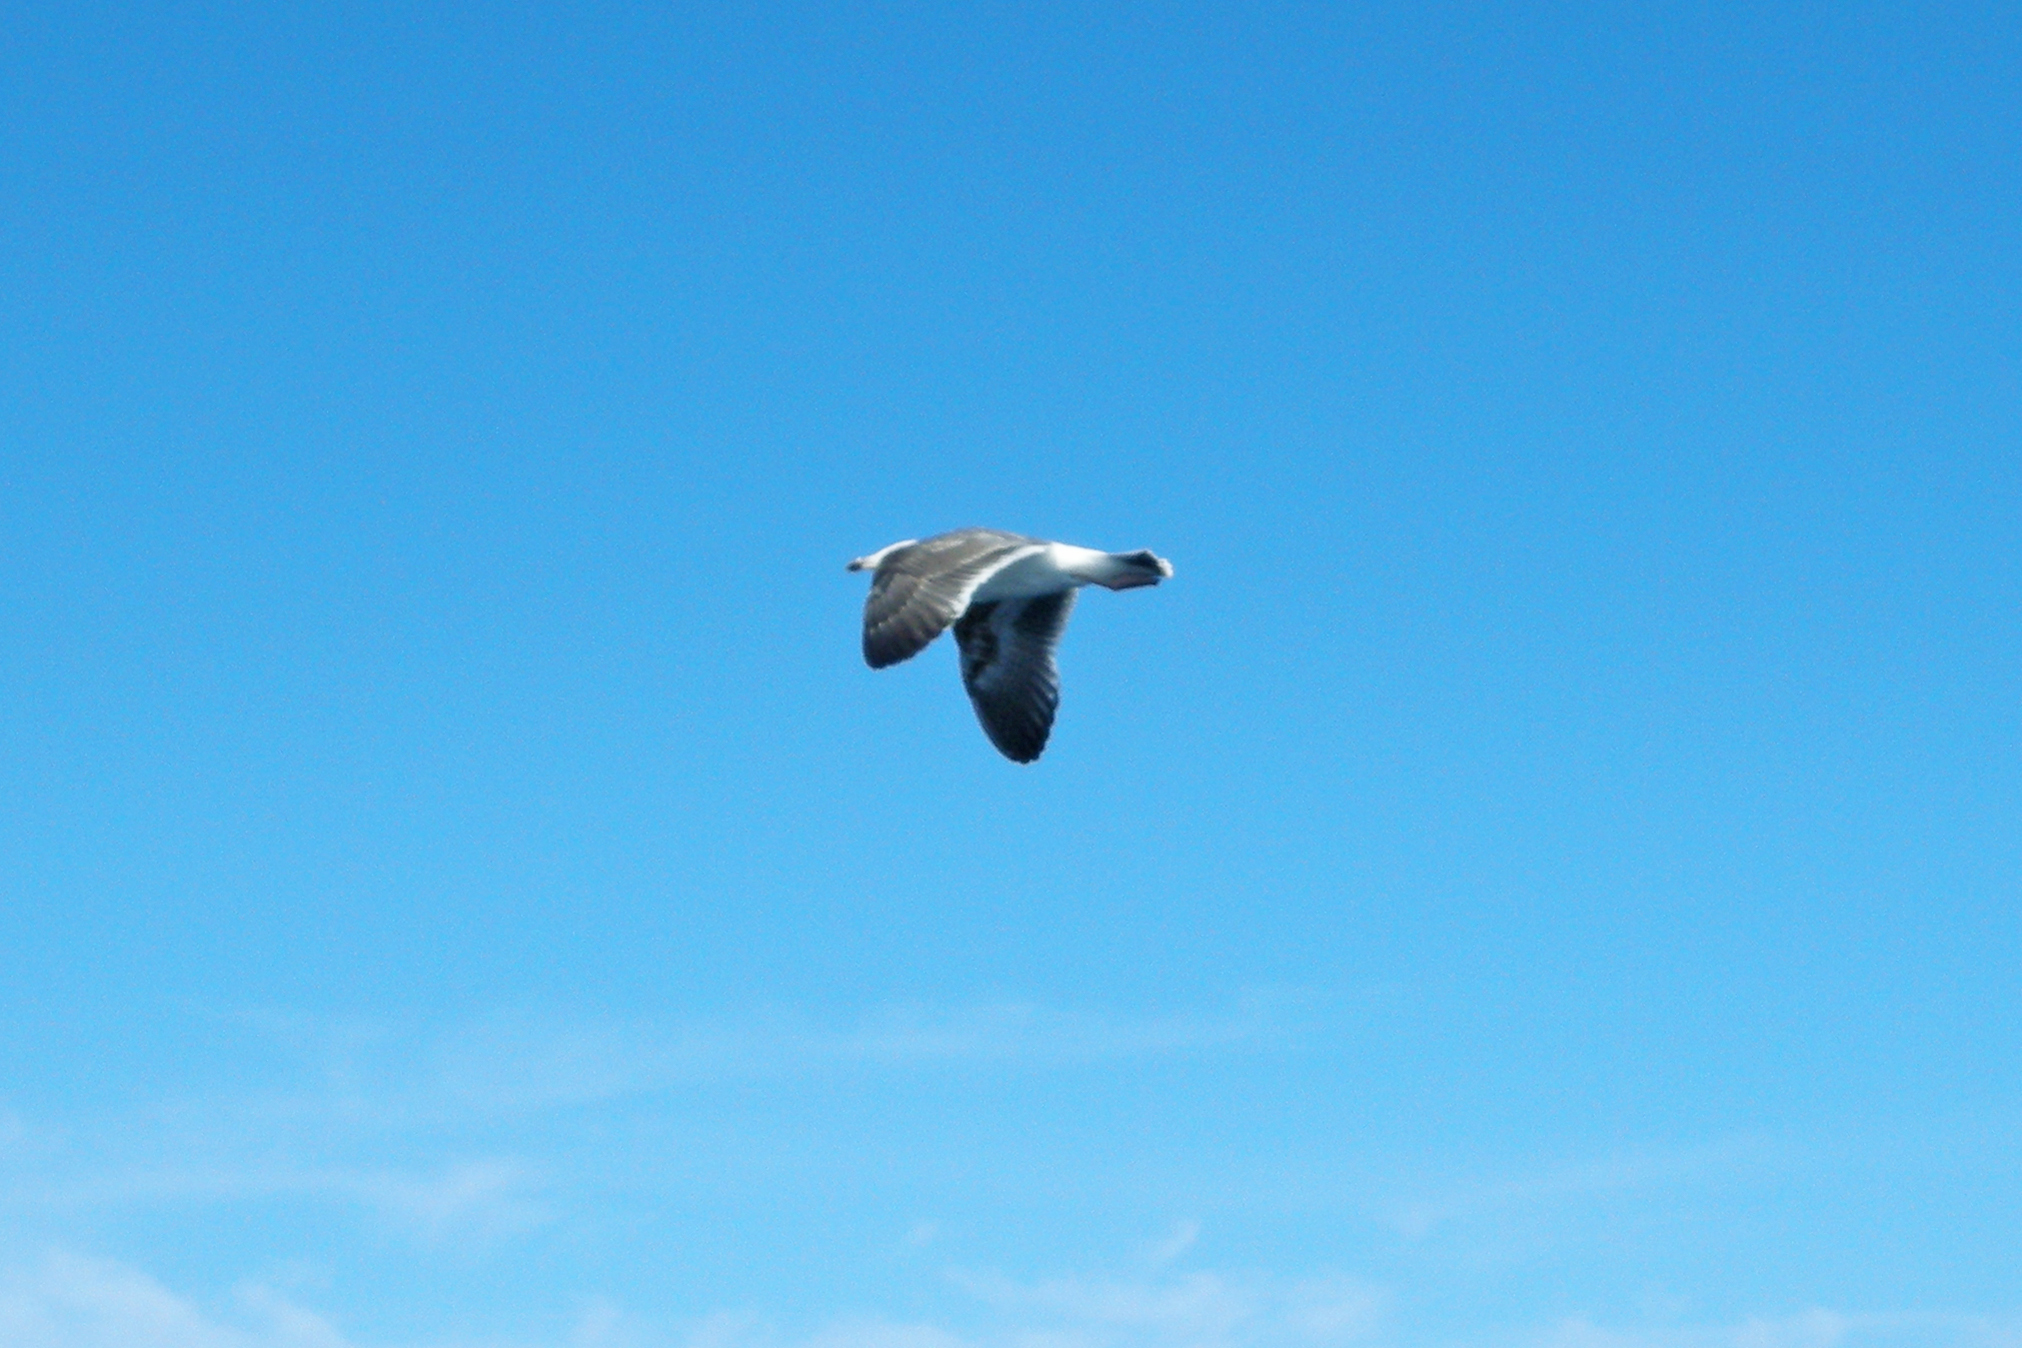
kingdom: Animalia
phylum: Chordata
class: Aves
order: Charadriiformes
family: Laridae
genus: Larus
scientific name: Larus occidentalis
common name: Western gull
